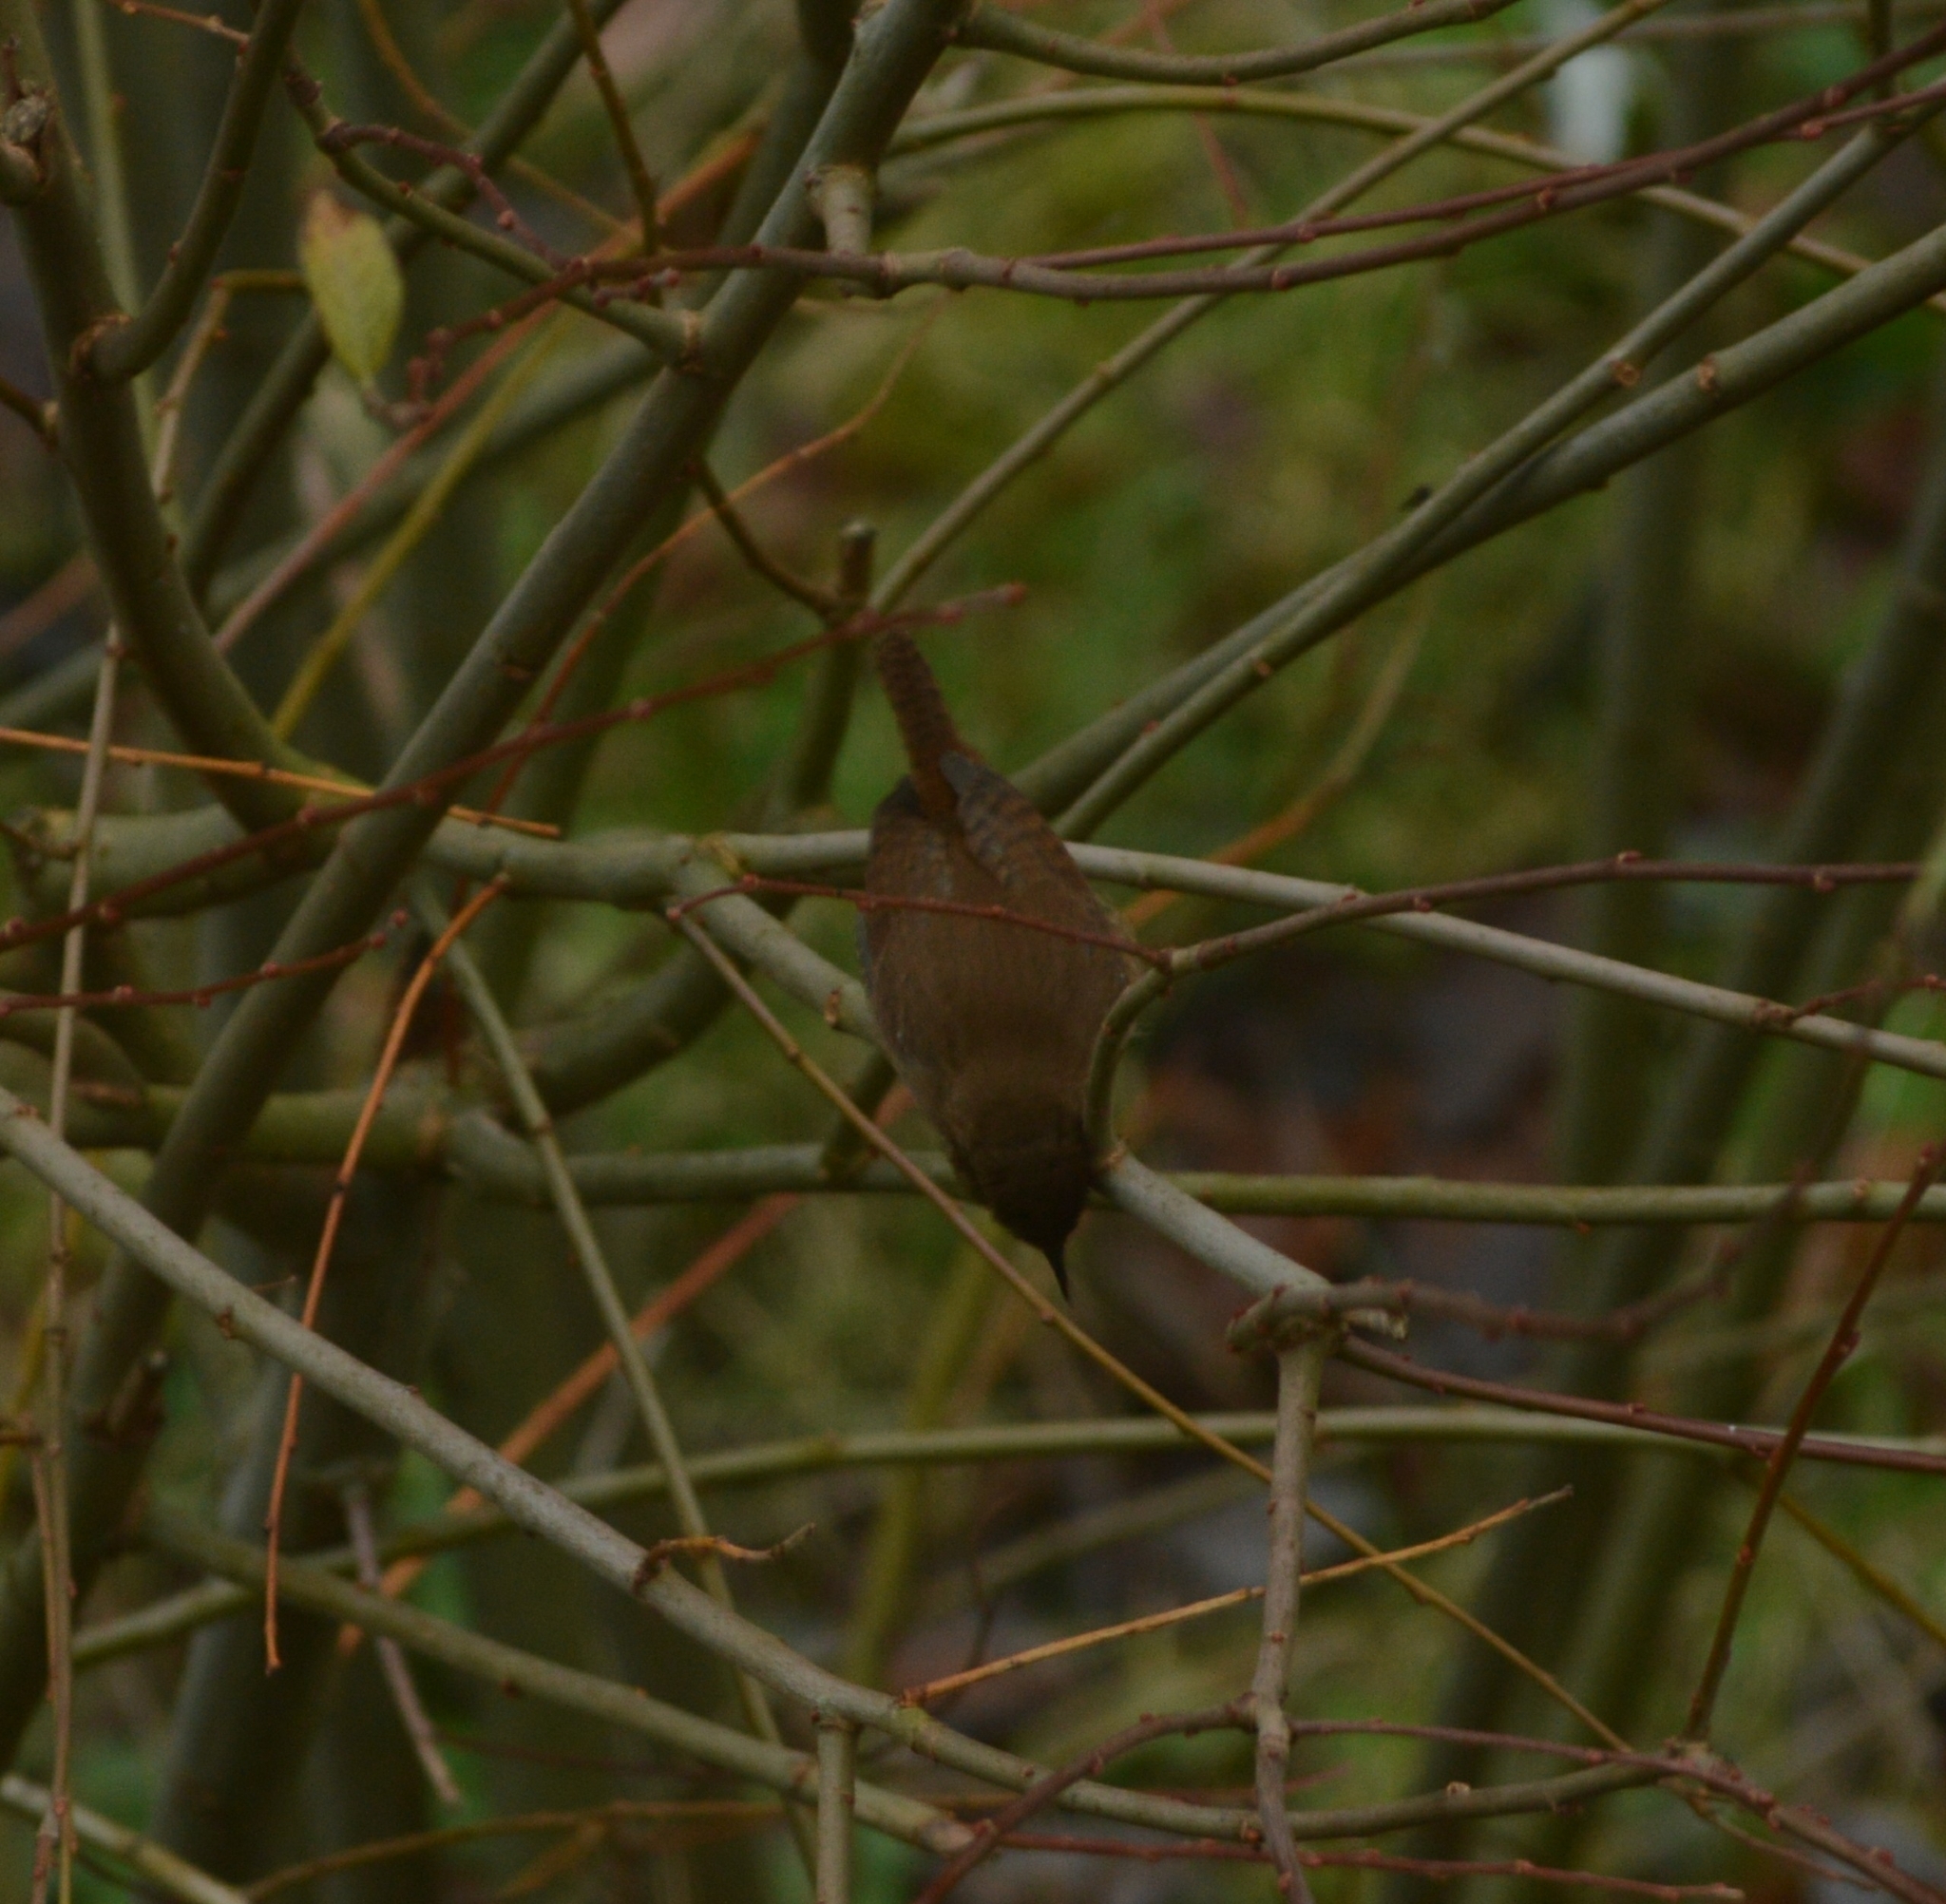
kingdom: Animalia
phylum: Chordata
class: Aves
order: Passeriformes
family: Troglodytidae
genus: Troglodytes
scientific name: Troglodytes troglodytes
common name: Eurasian wren
